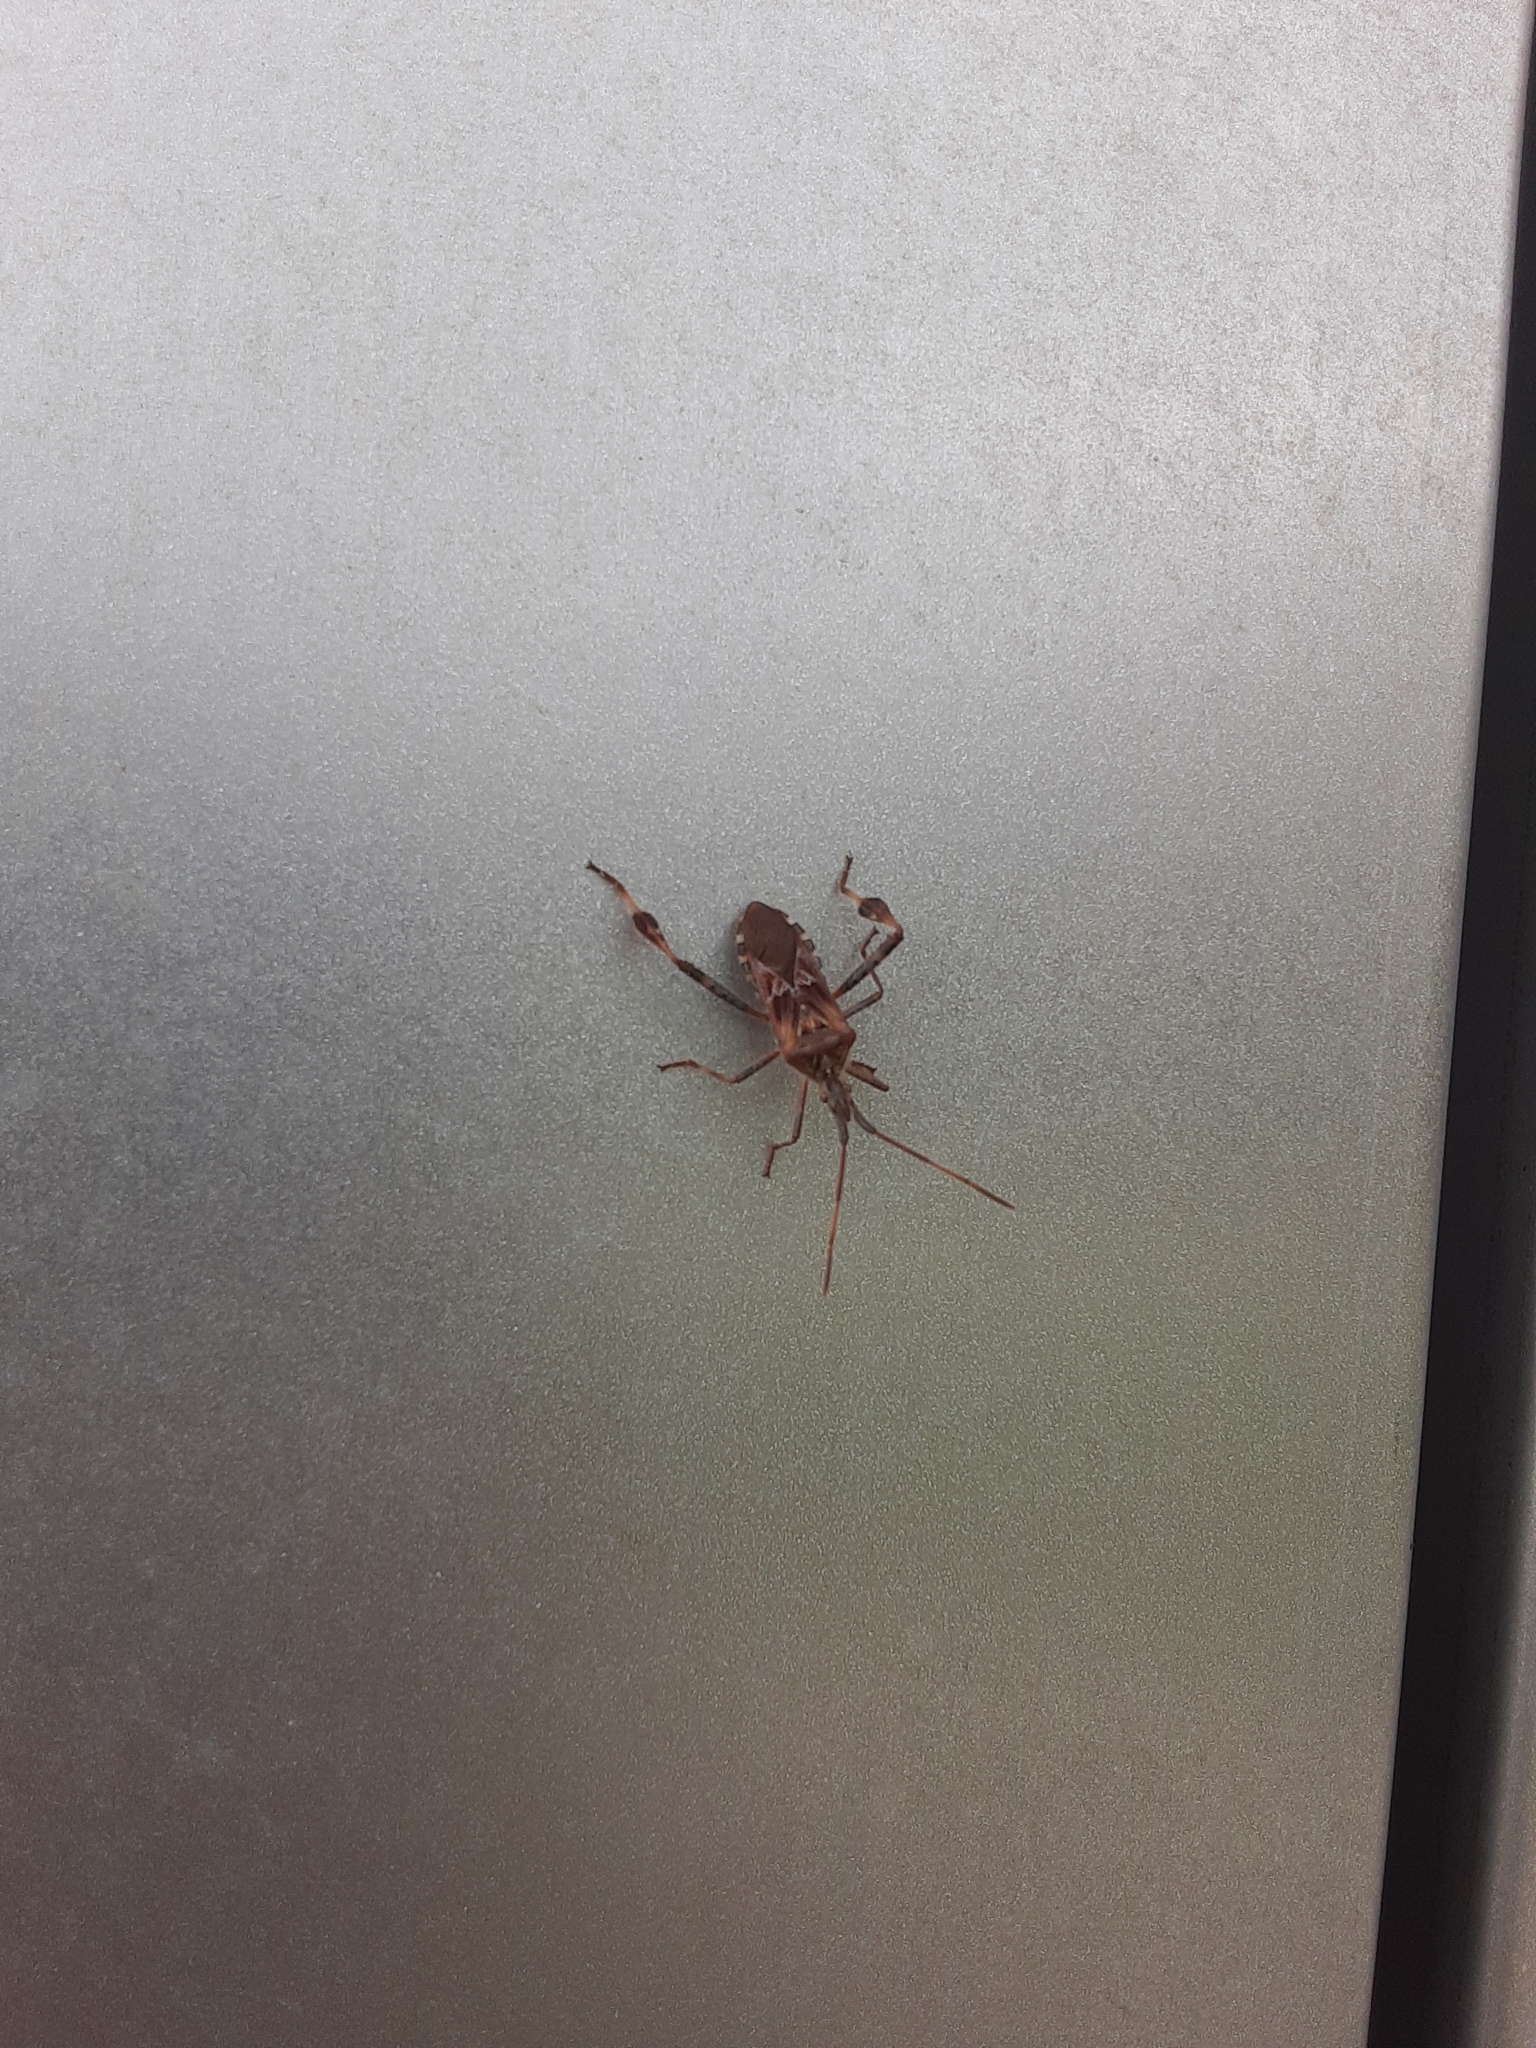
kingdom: Animalia
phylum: Arthropoda
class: Insecta
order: Hemiptera
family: Coreidae
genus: Leptoglossus
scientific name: Leptoglossus occidentalis
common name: Western conifer-seed bug
